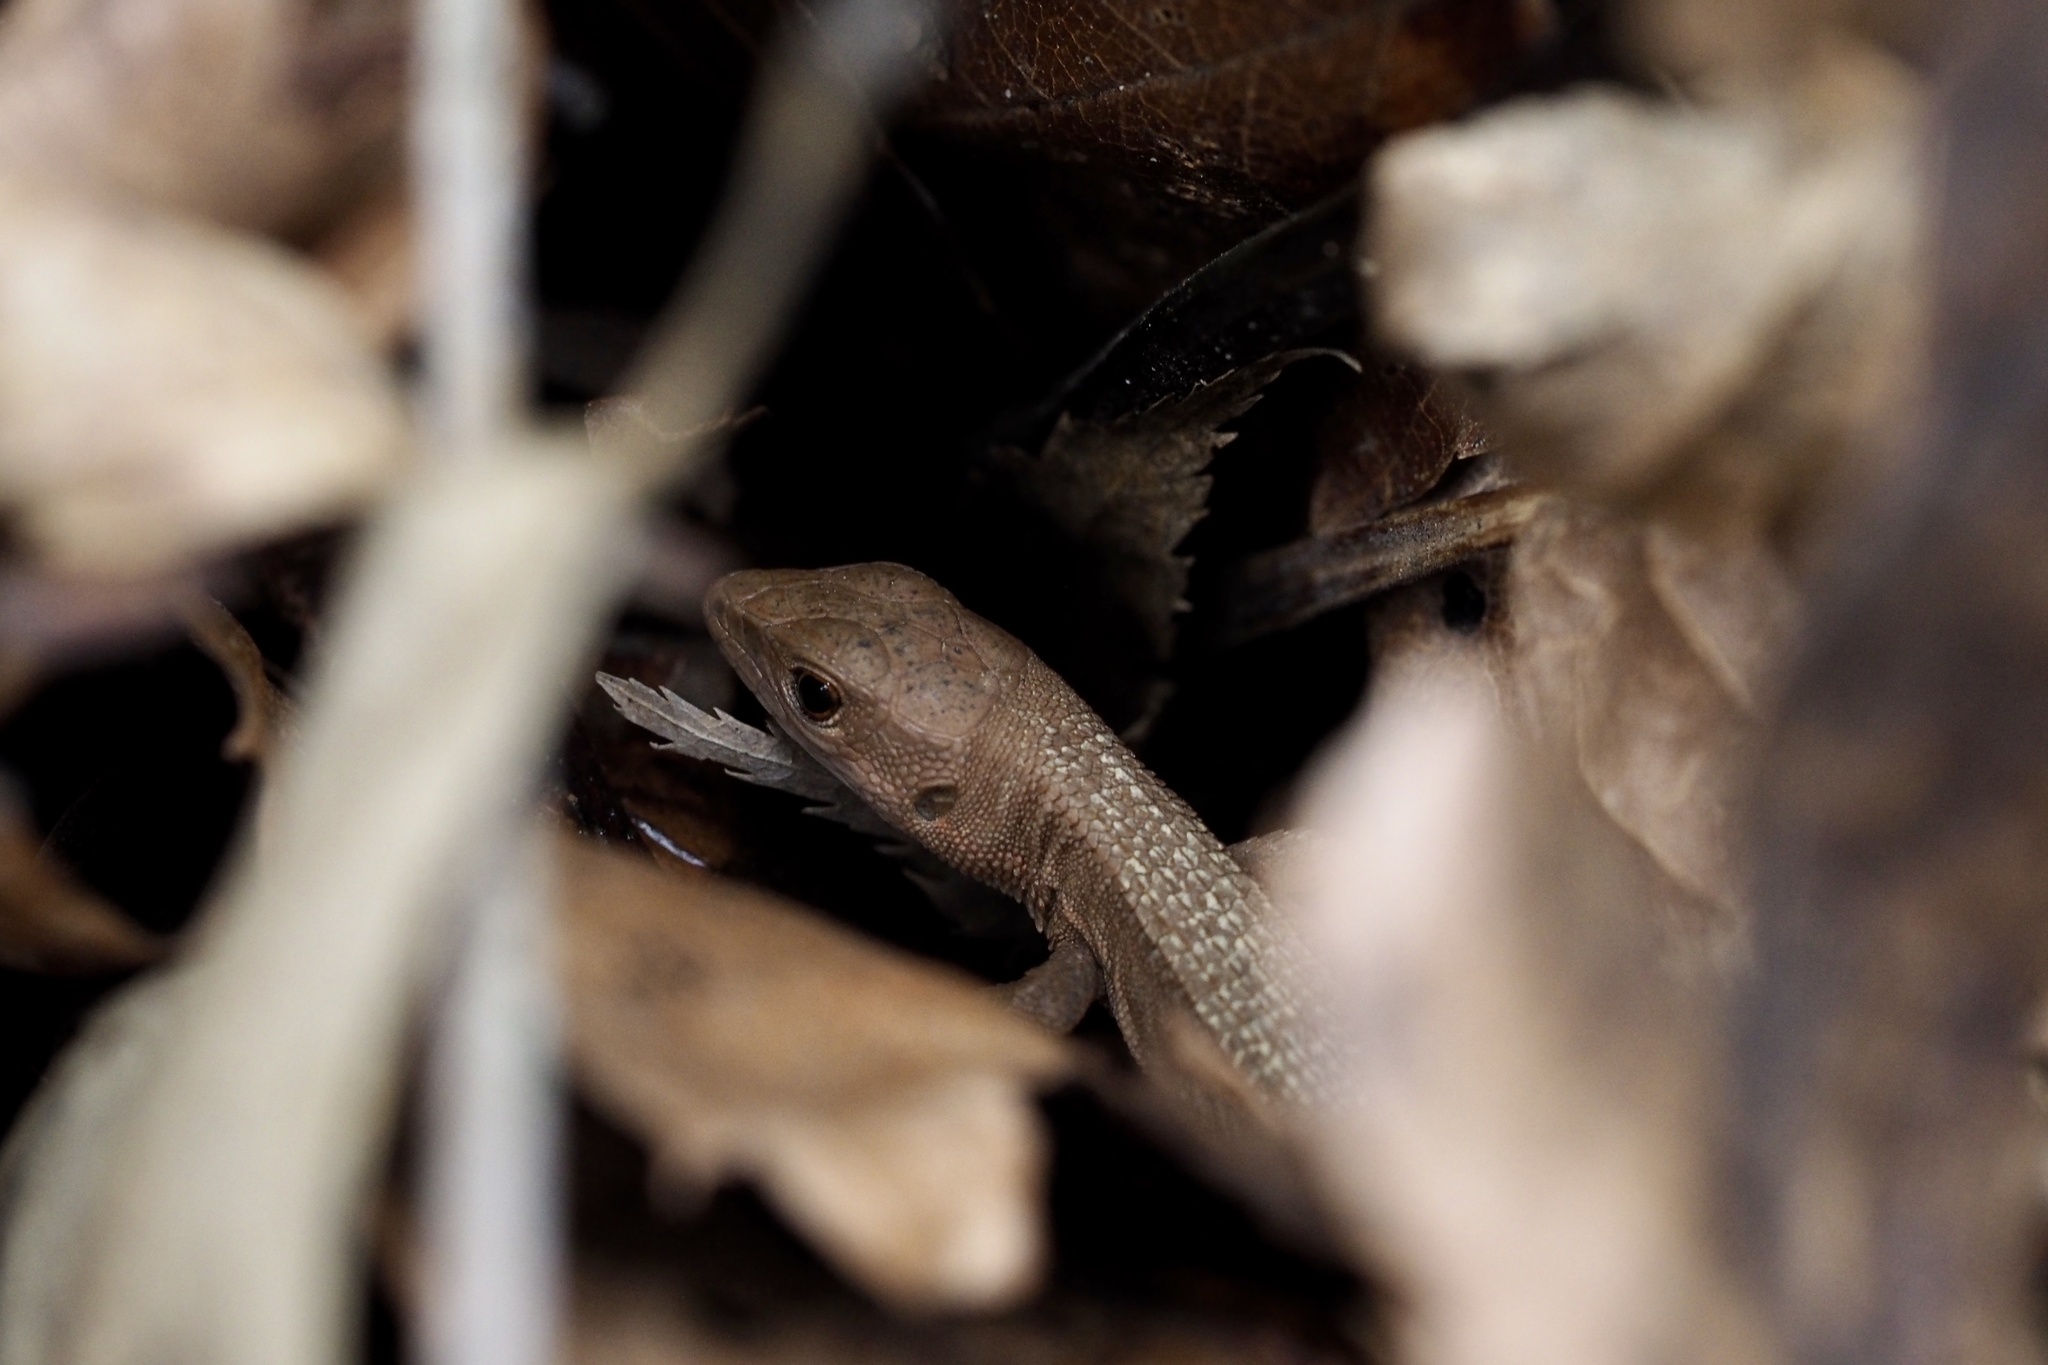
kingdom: Animalia
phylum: Chordata
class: Squamata
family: Lacertidae
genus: Takydromus
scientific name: Takydromus tachydromoides
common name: Japanese grass lizard
